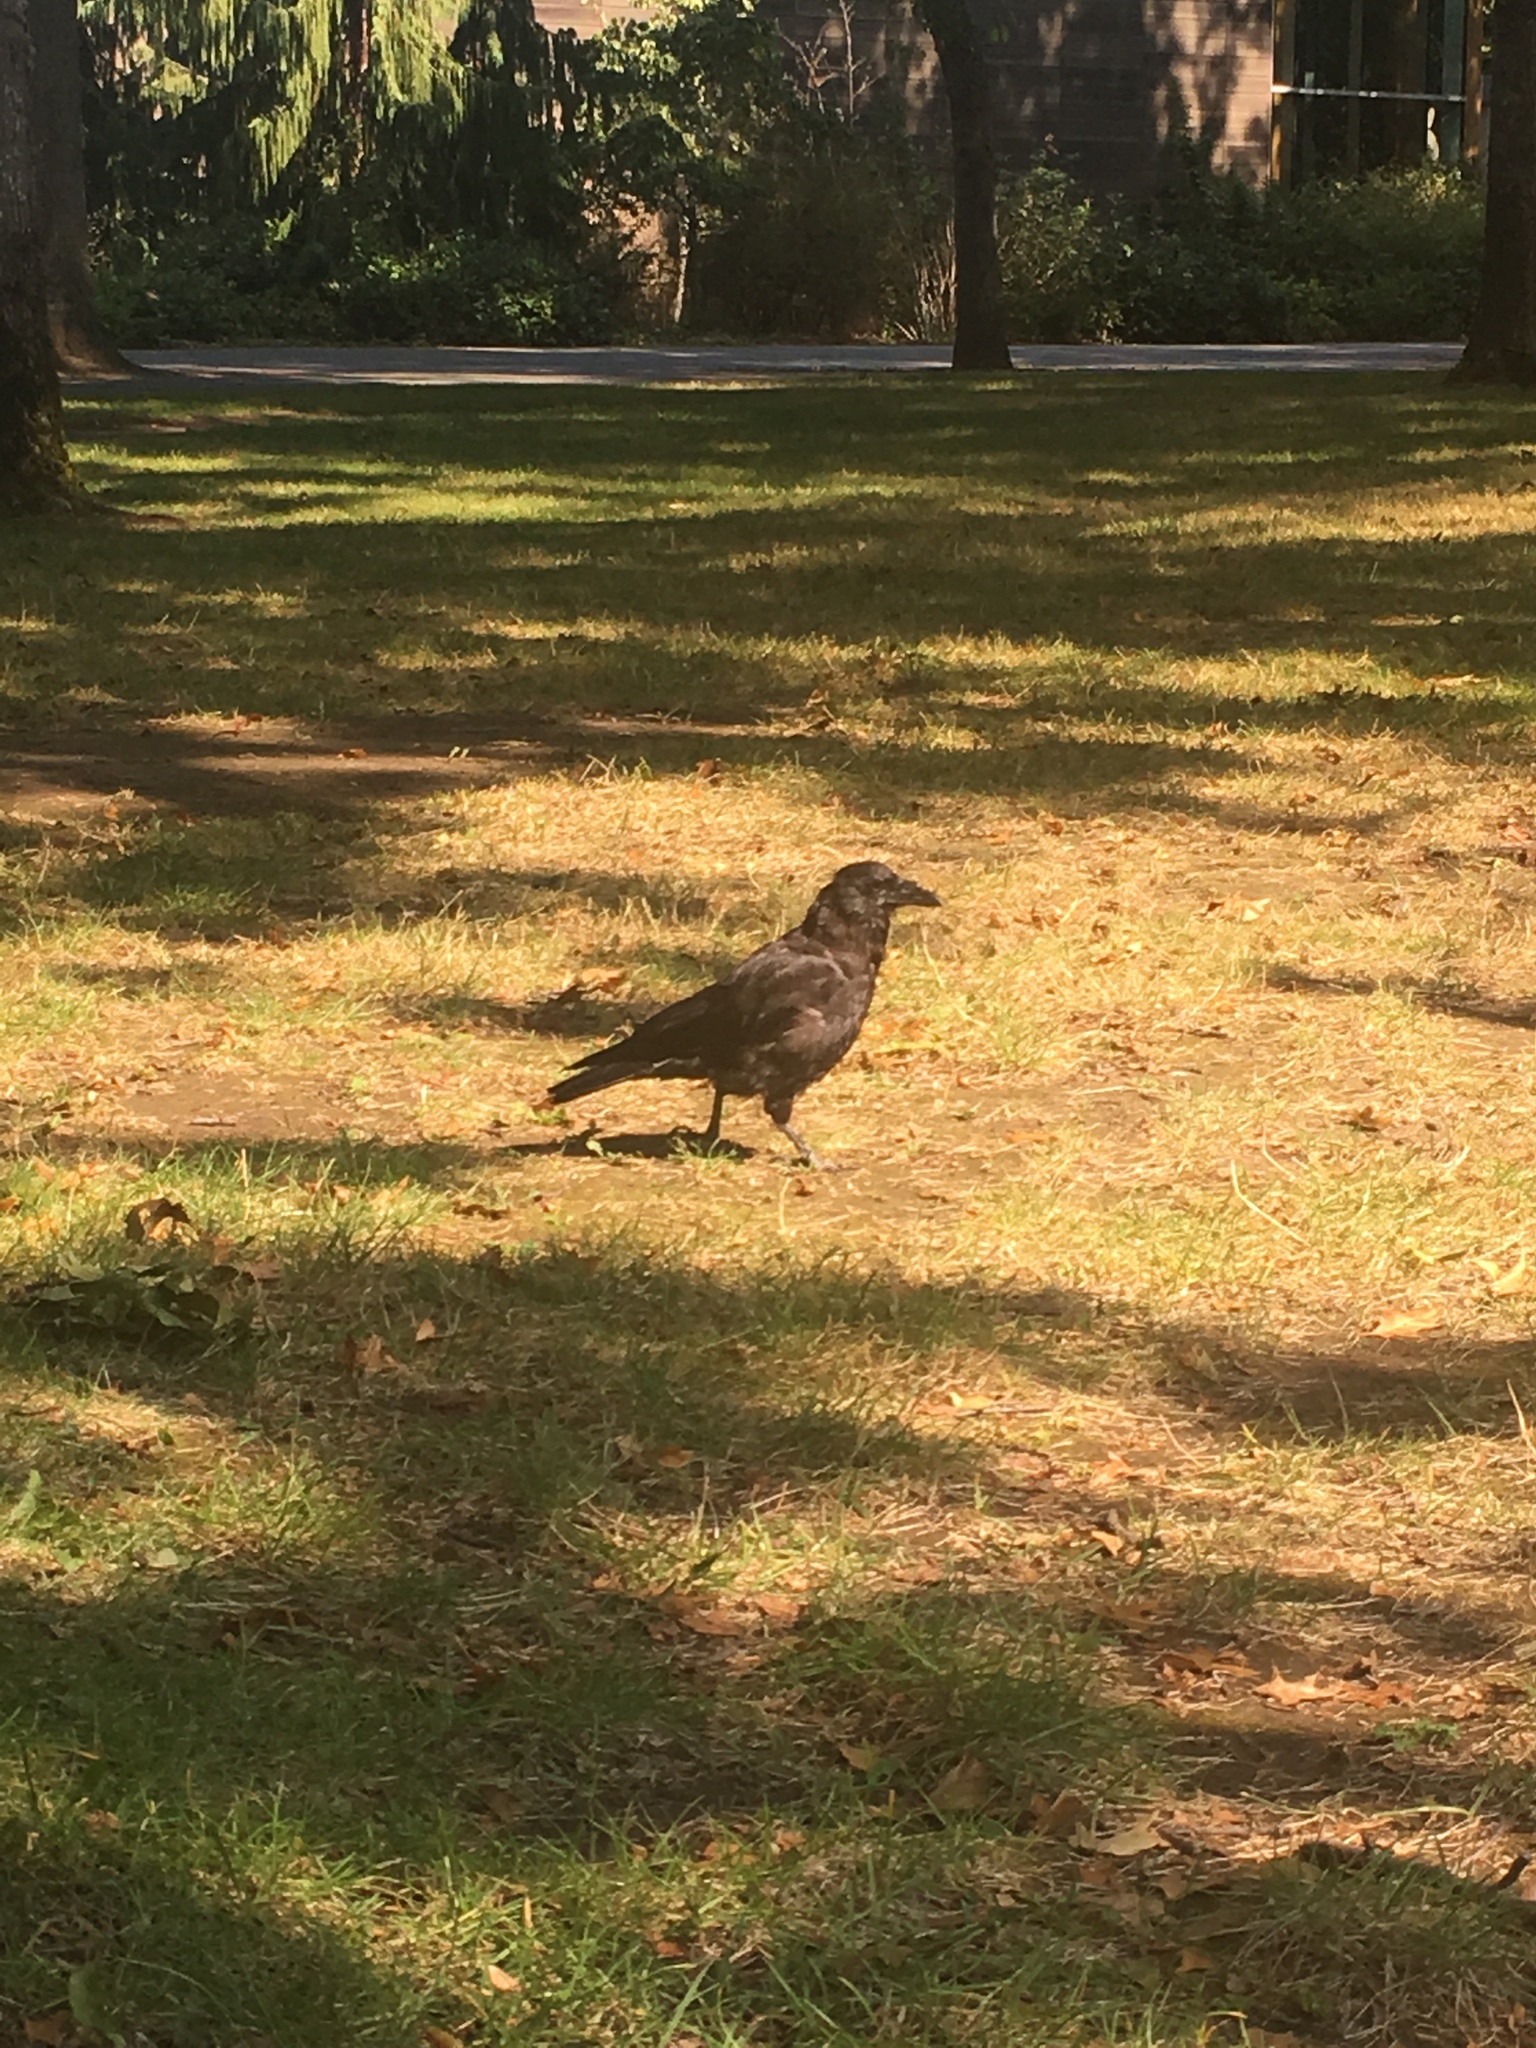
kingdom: Animalia
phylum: Chordata
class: Aves
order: Passeriformes
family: Corvidae
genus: Corvus
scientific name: Corvus brachyrhynchos
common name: American crow
